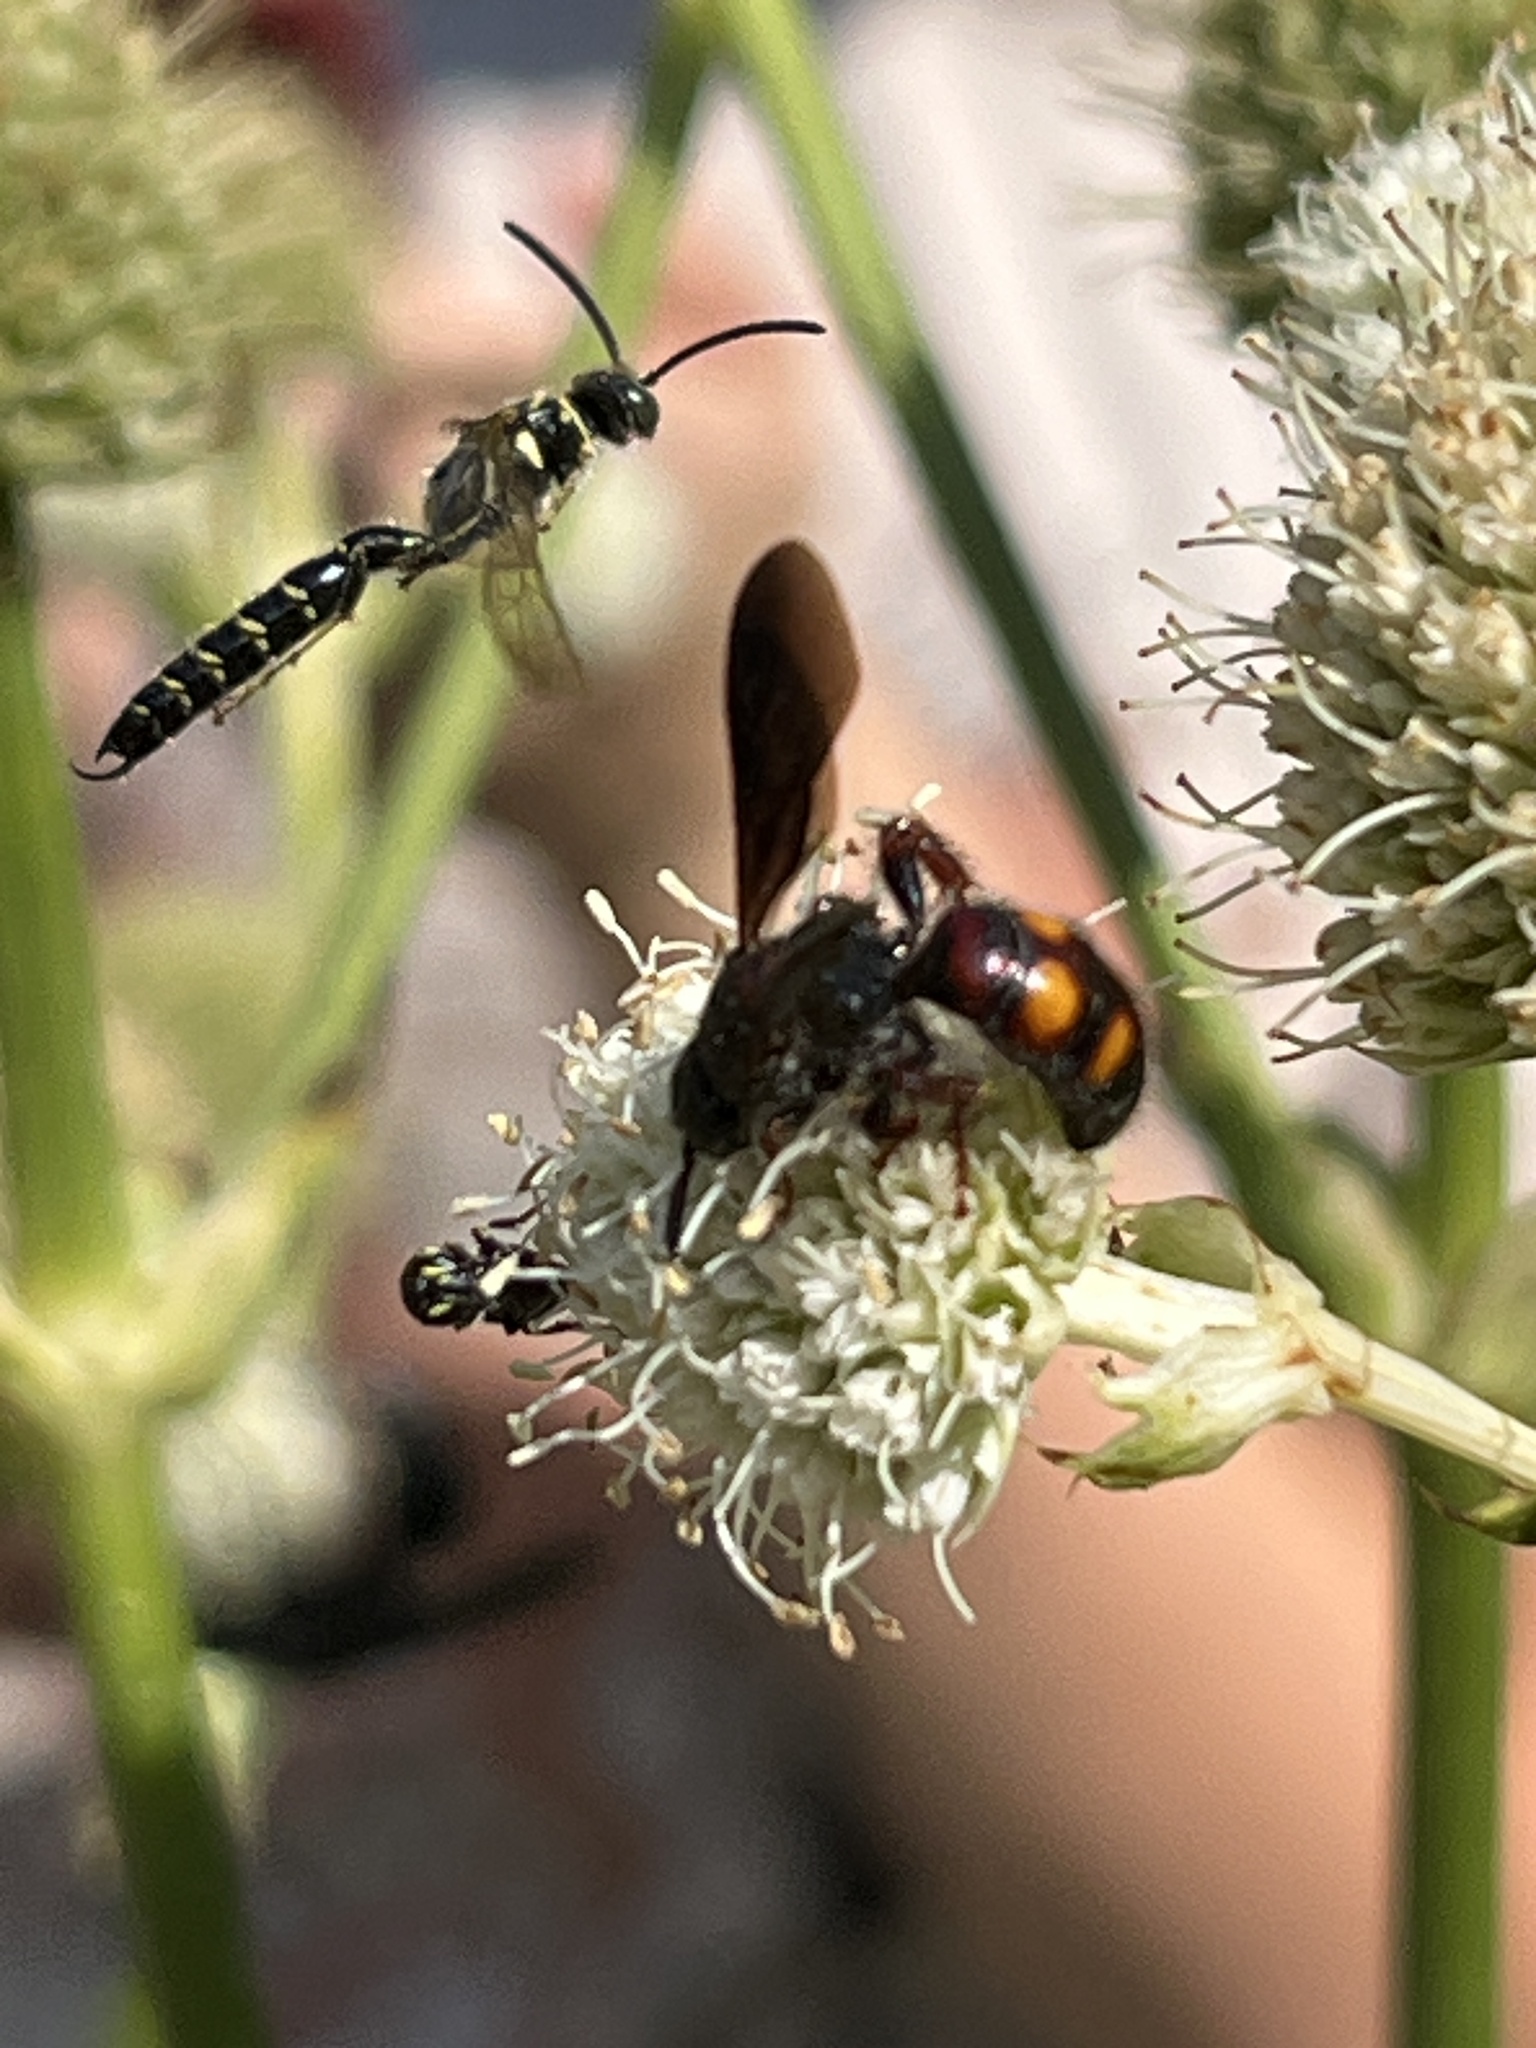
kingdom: Animalia
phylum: Arthropoda
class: Insecta
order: Hymenoptera
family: Scoliidae
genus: Scolia
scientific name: Scolia nobilitata
